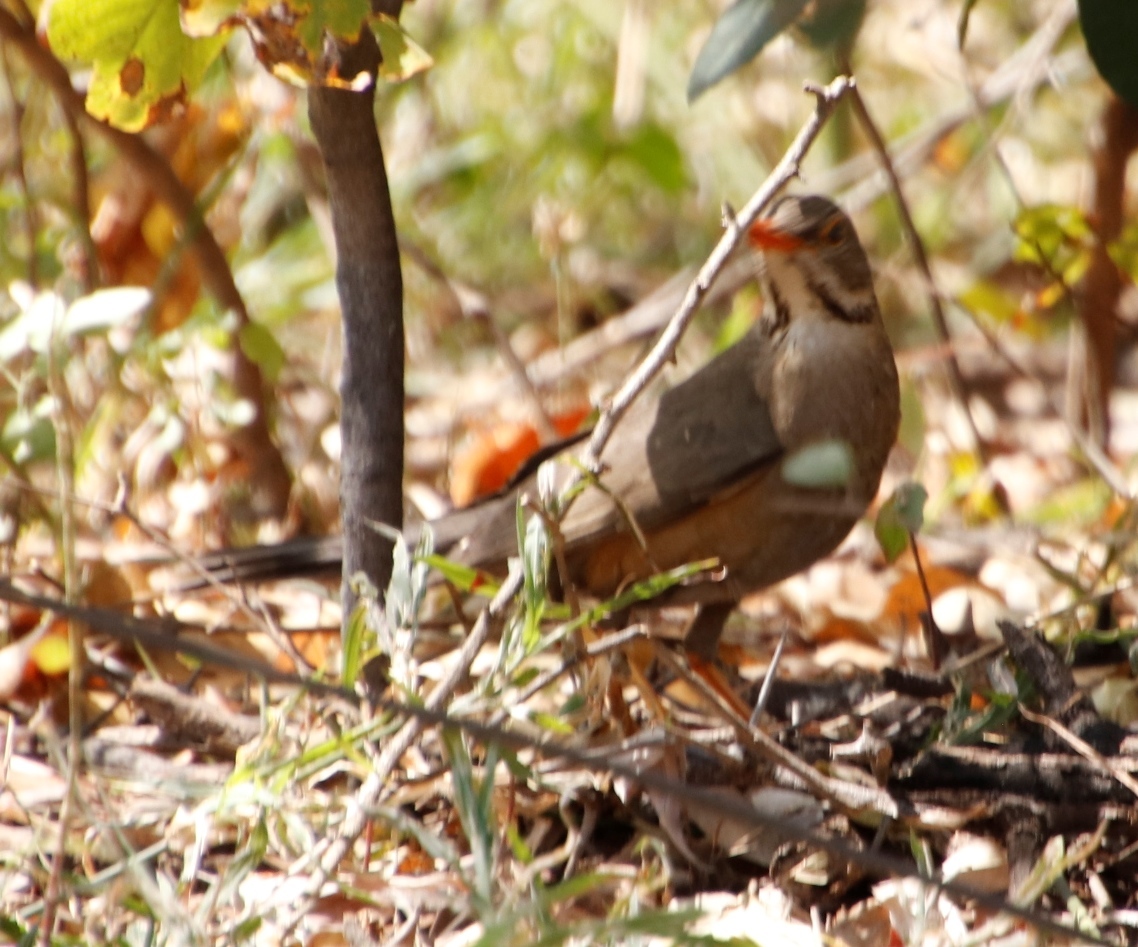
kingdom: Animalia
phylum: Chordata
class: Aves
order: Passeriformes
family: Turdidae
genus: Turdus
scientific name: Turdus libonyana
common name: Kurrichane thrush
